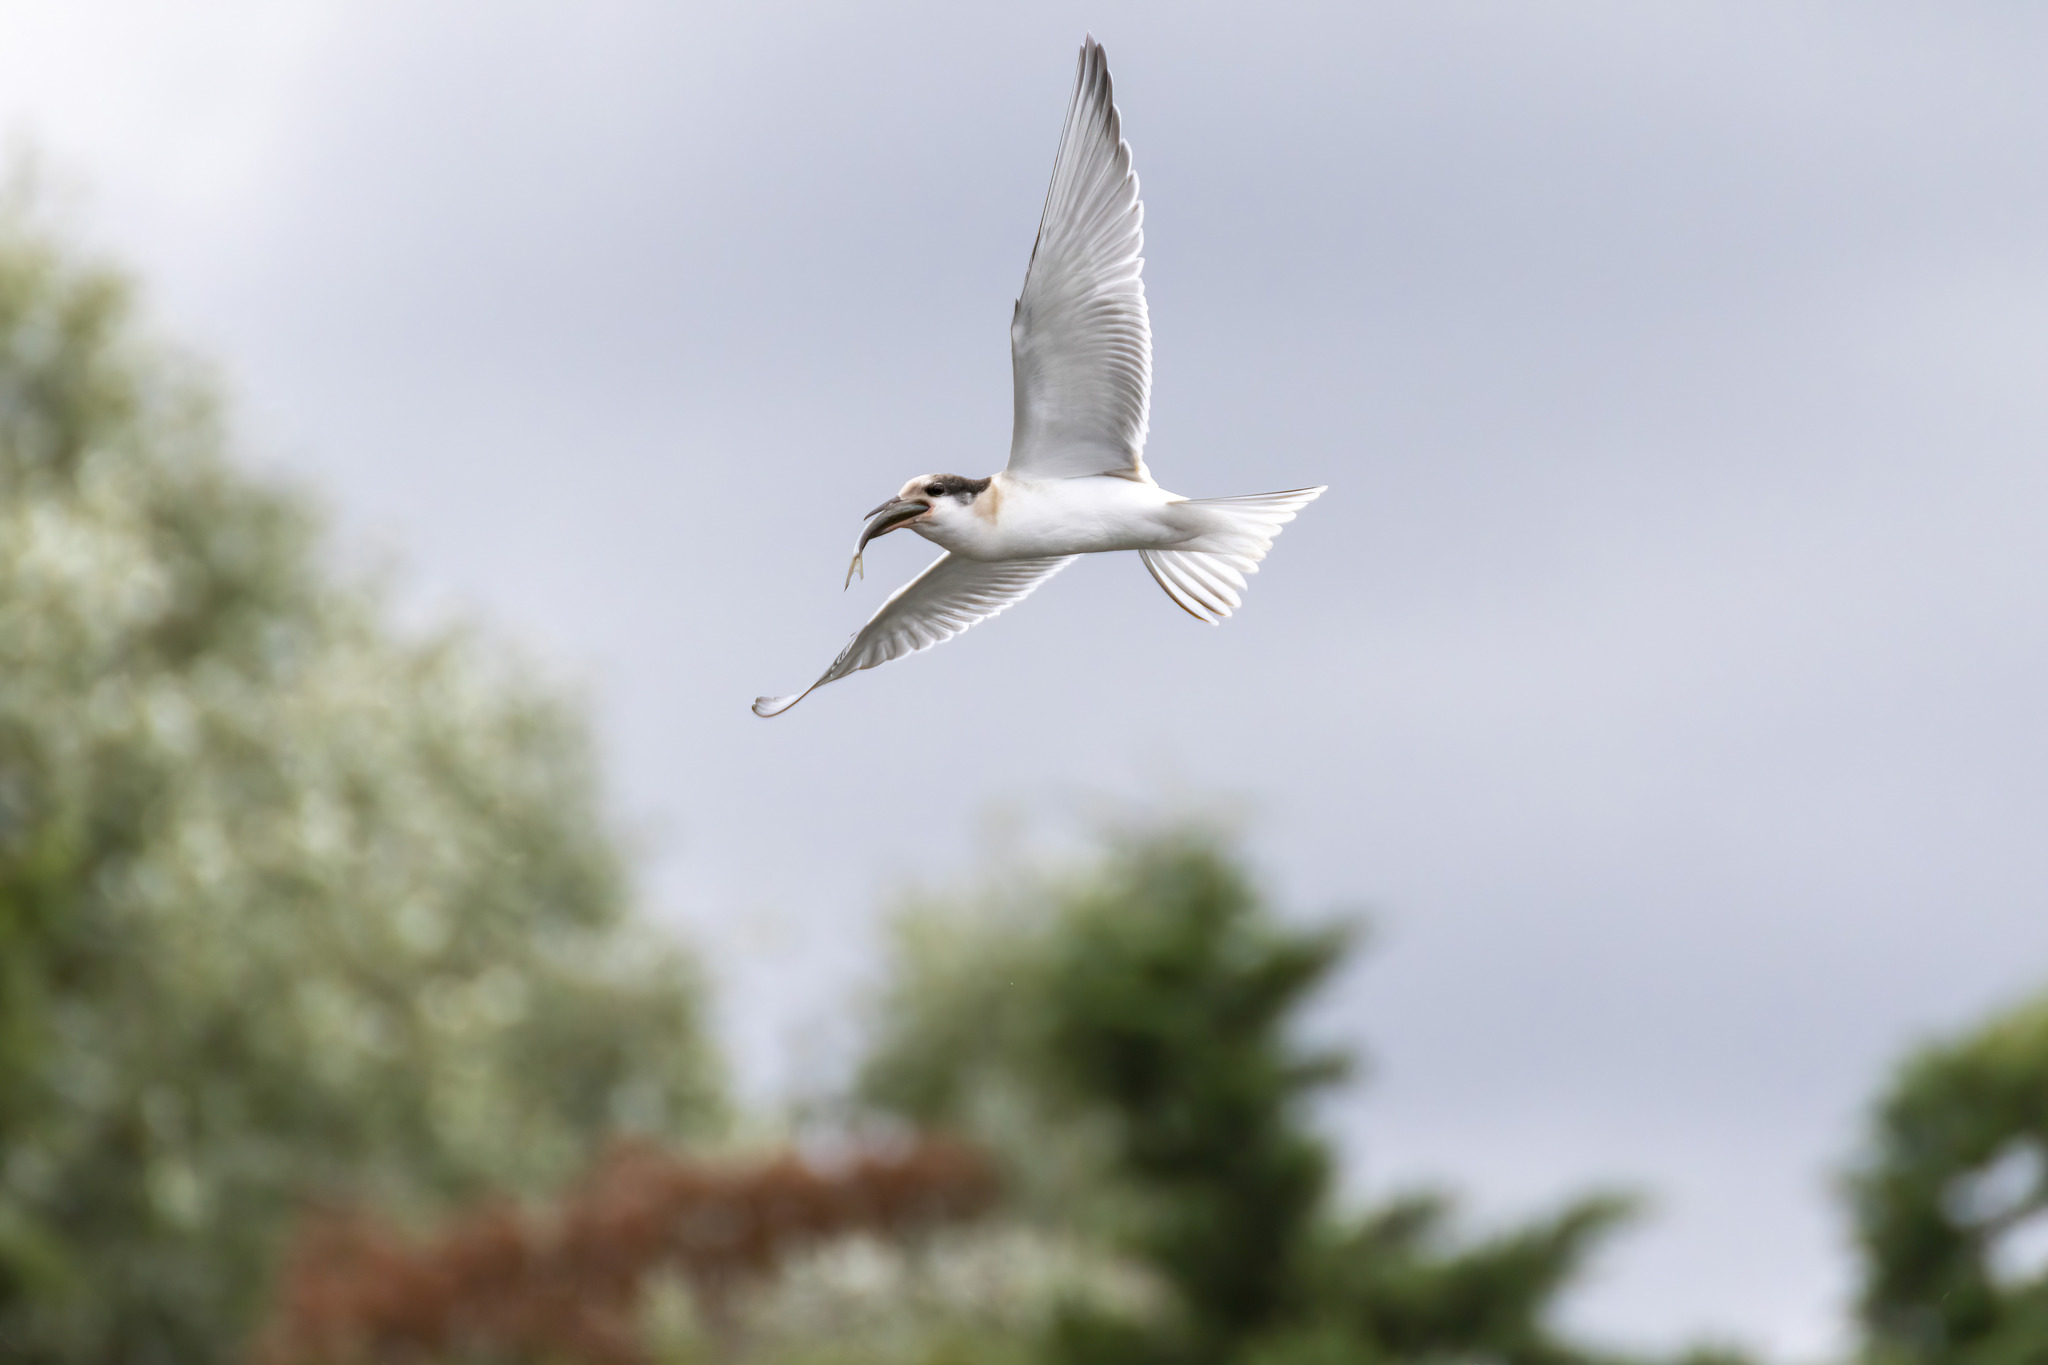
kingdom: Animalia
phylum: Chordata
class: Aves
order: Charadriiformes
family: Laridae
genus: Sterna
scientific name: Sterna hirundo
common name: Common tern
